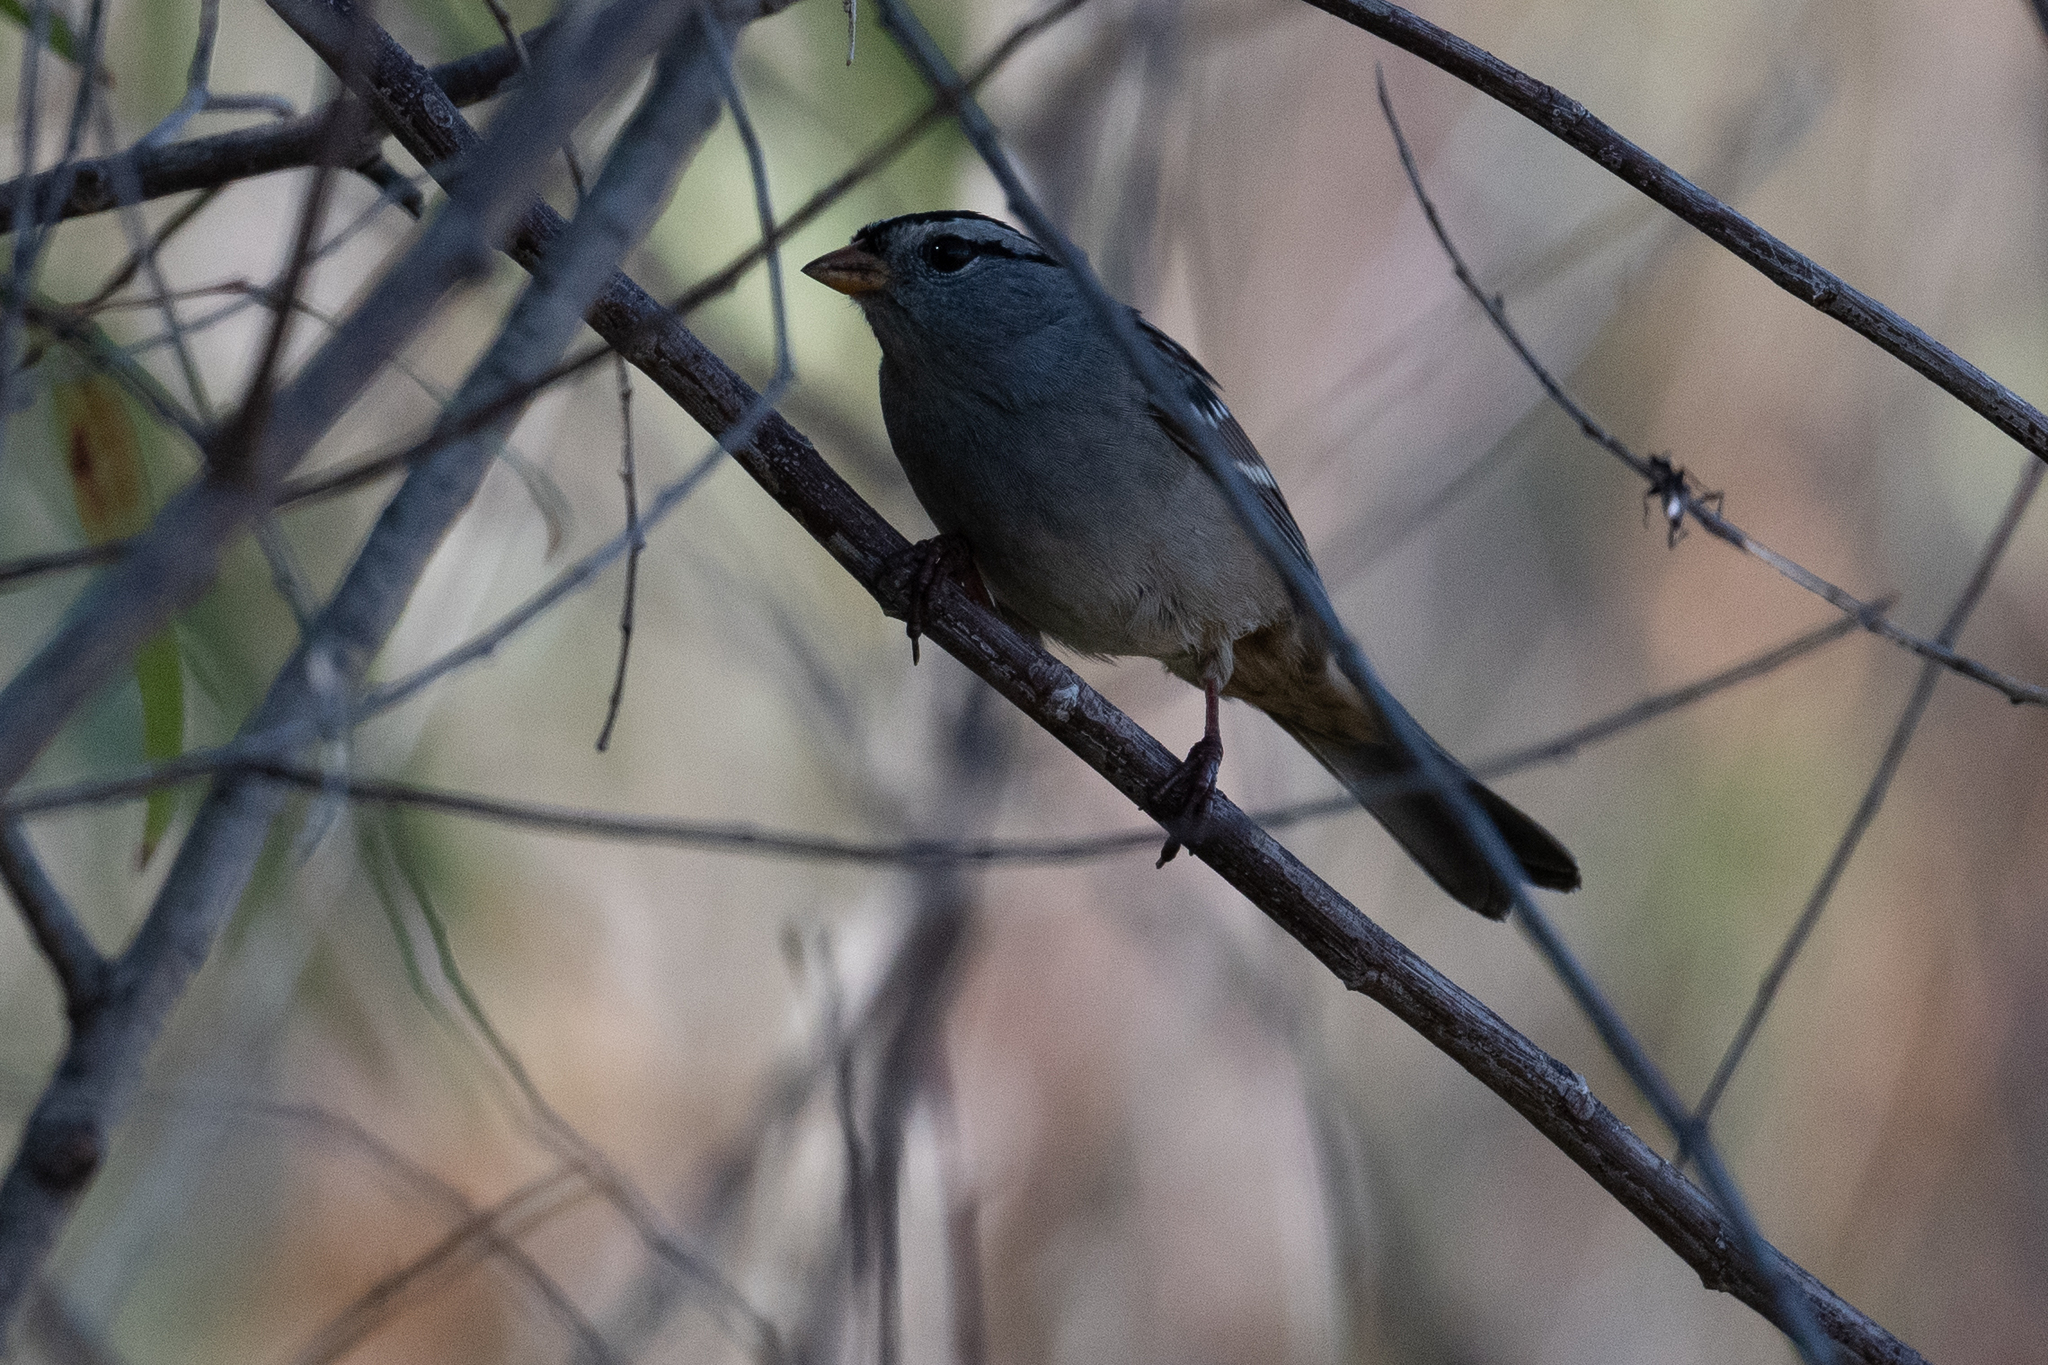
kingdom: Animalia
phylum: Chordata
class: Aves
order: Passeriformes
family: Passerellidae
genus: Zonotrichia
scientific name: Zonotrichia leucophrys
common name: White-crowned sparrow
